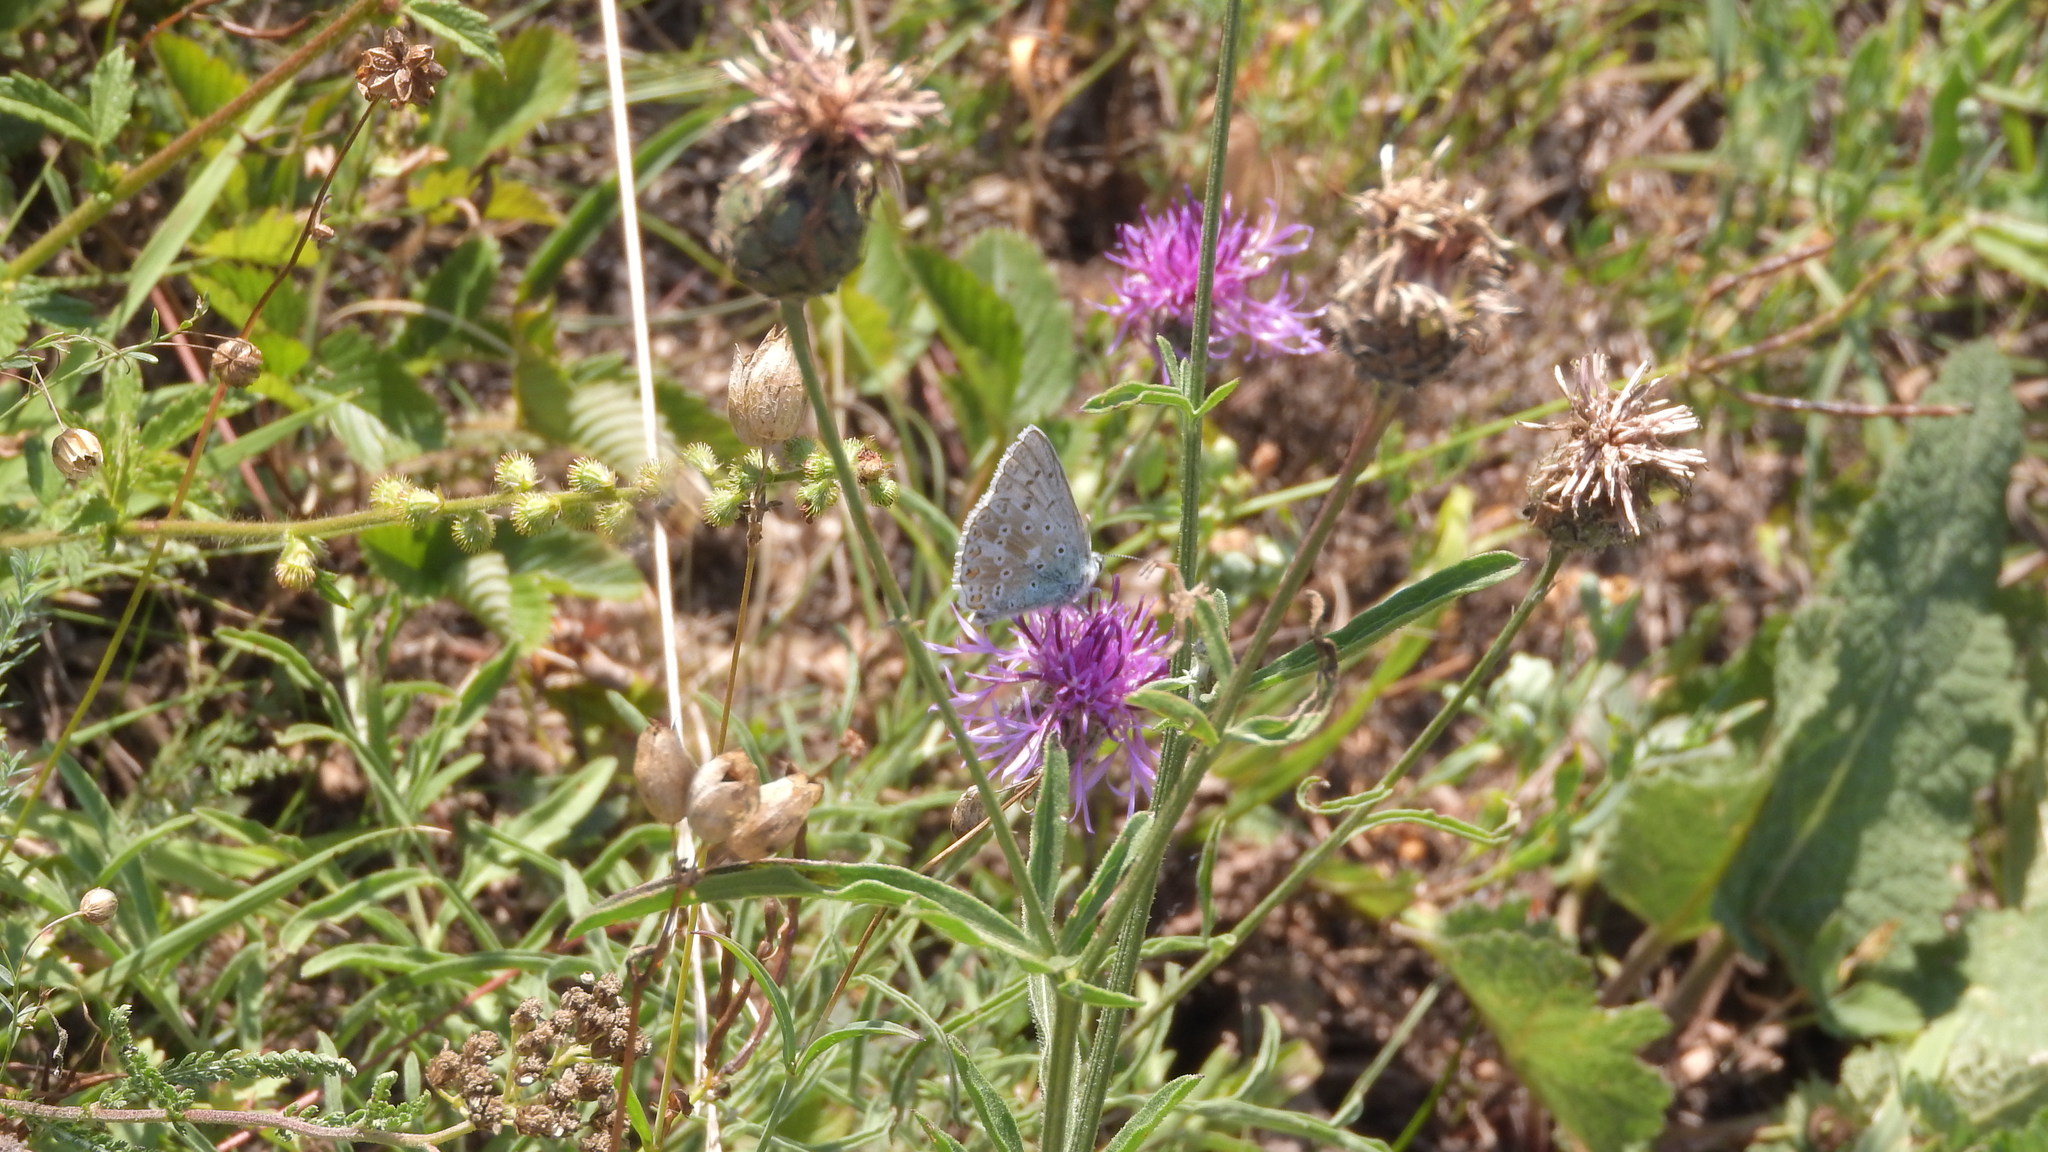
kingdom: Animalia
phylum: Arthropoda
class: Insecta
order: Lepidoptera
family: Lycaenidae
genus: Lysandra
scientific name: Lysandra coridon
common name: Chalkhill blue
